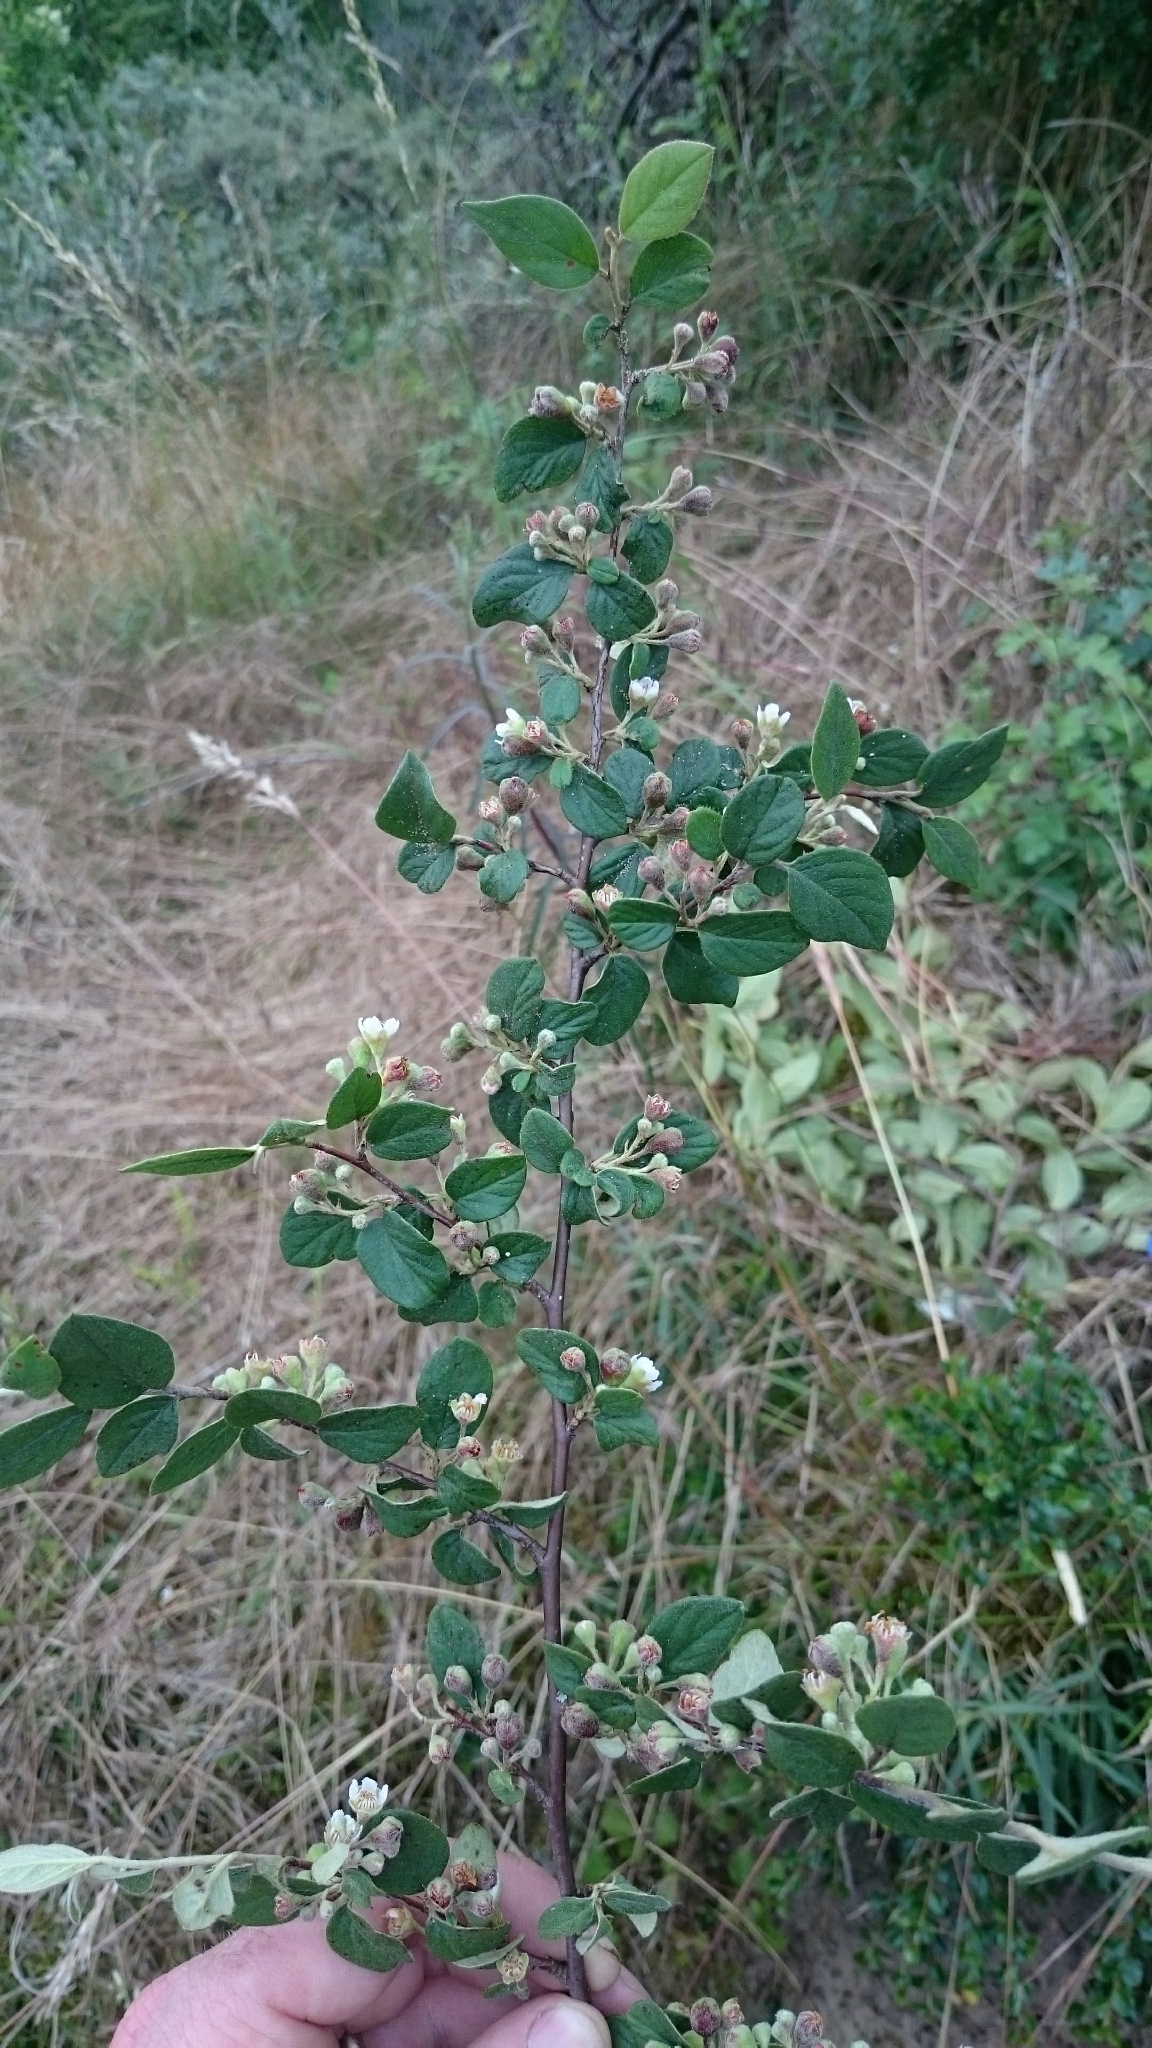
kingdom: Plantae
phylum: Tracheophyta
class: Magnoliopsida
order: Rosales
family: Rosaceae
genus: Cotoneaster
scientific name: Cotoneaster franchetii
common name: Franchet's cotoneaster
